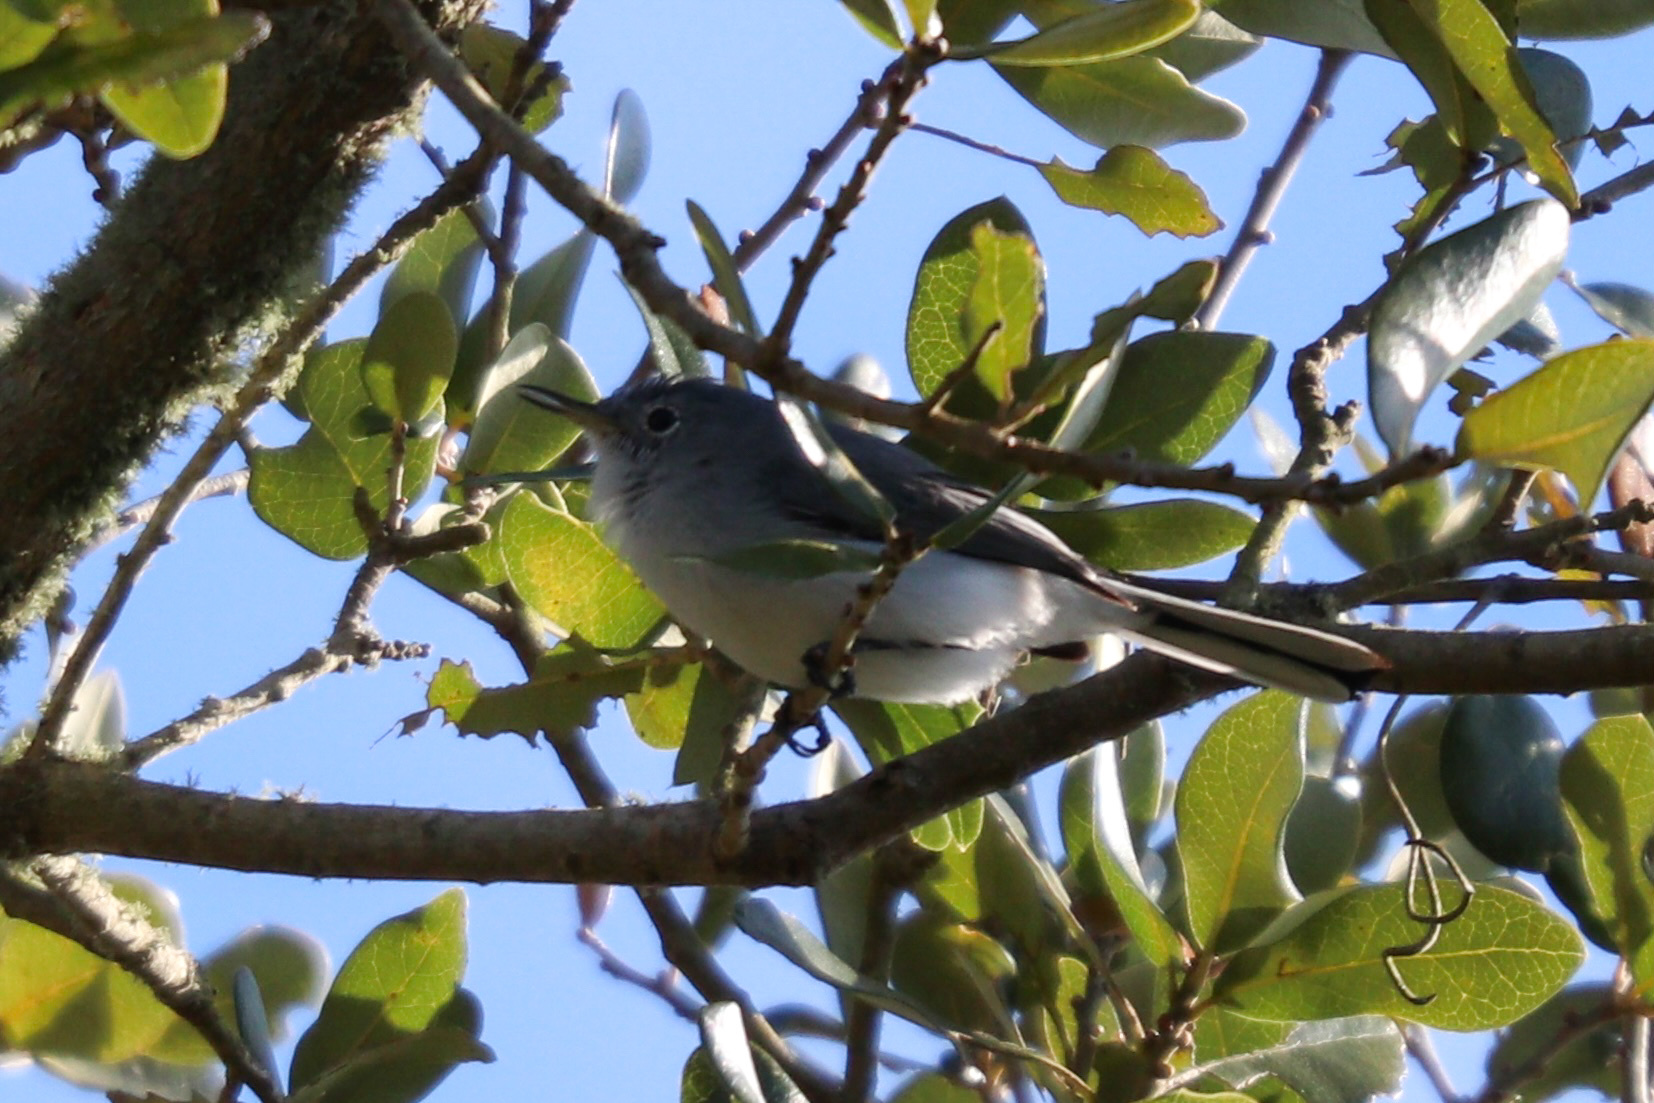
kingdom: Animalia
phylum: Chordata
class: Aves
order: Passeriformes
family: Polioptilidae
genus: Polioptila
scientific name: Polioptila caerulea
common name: Blue-gray gnatcatcher
